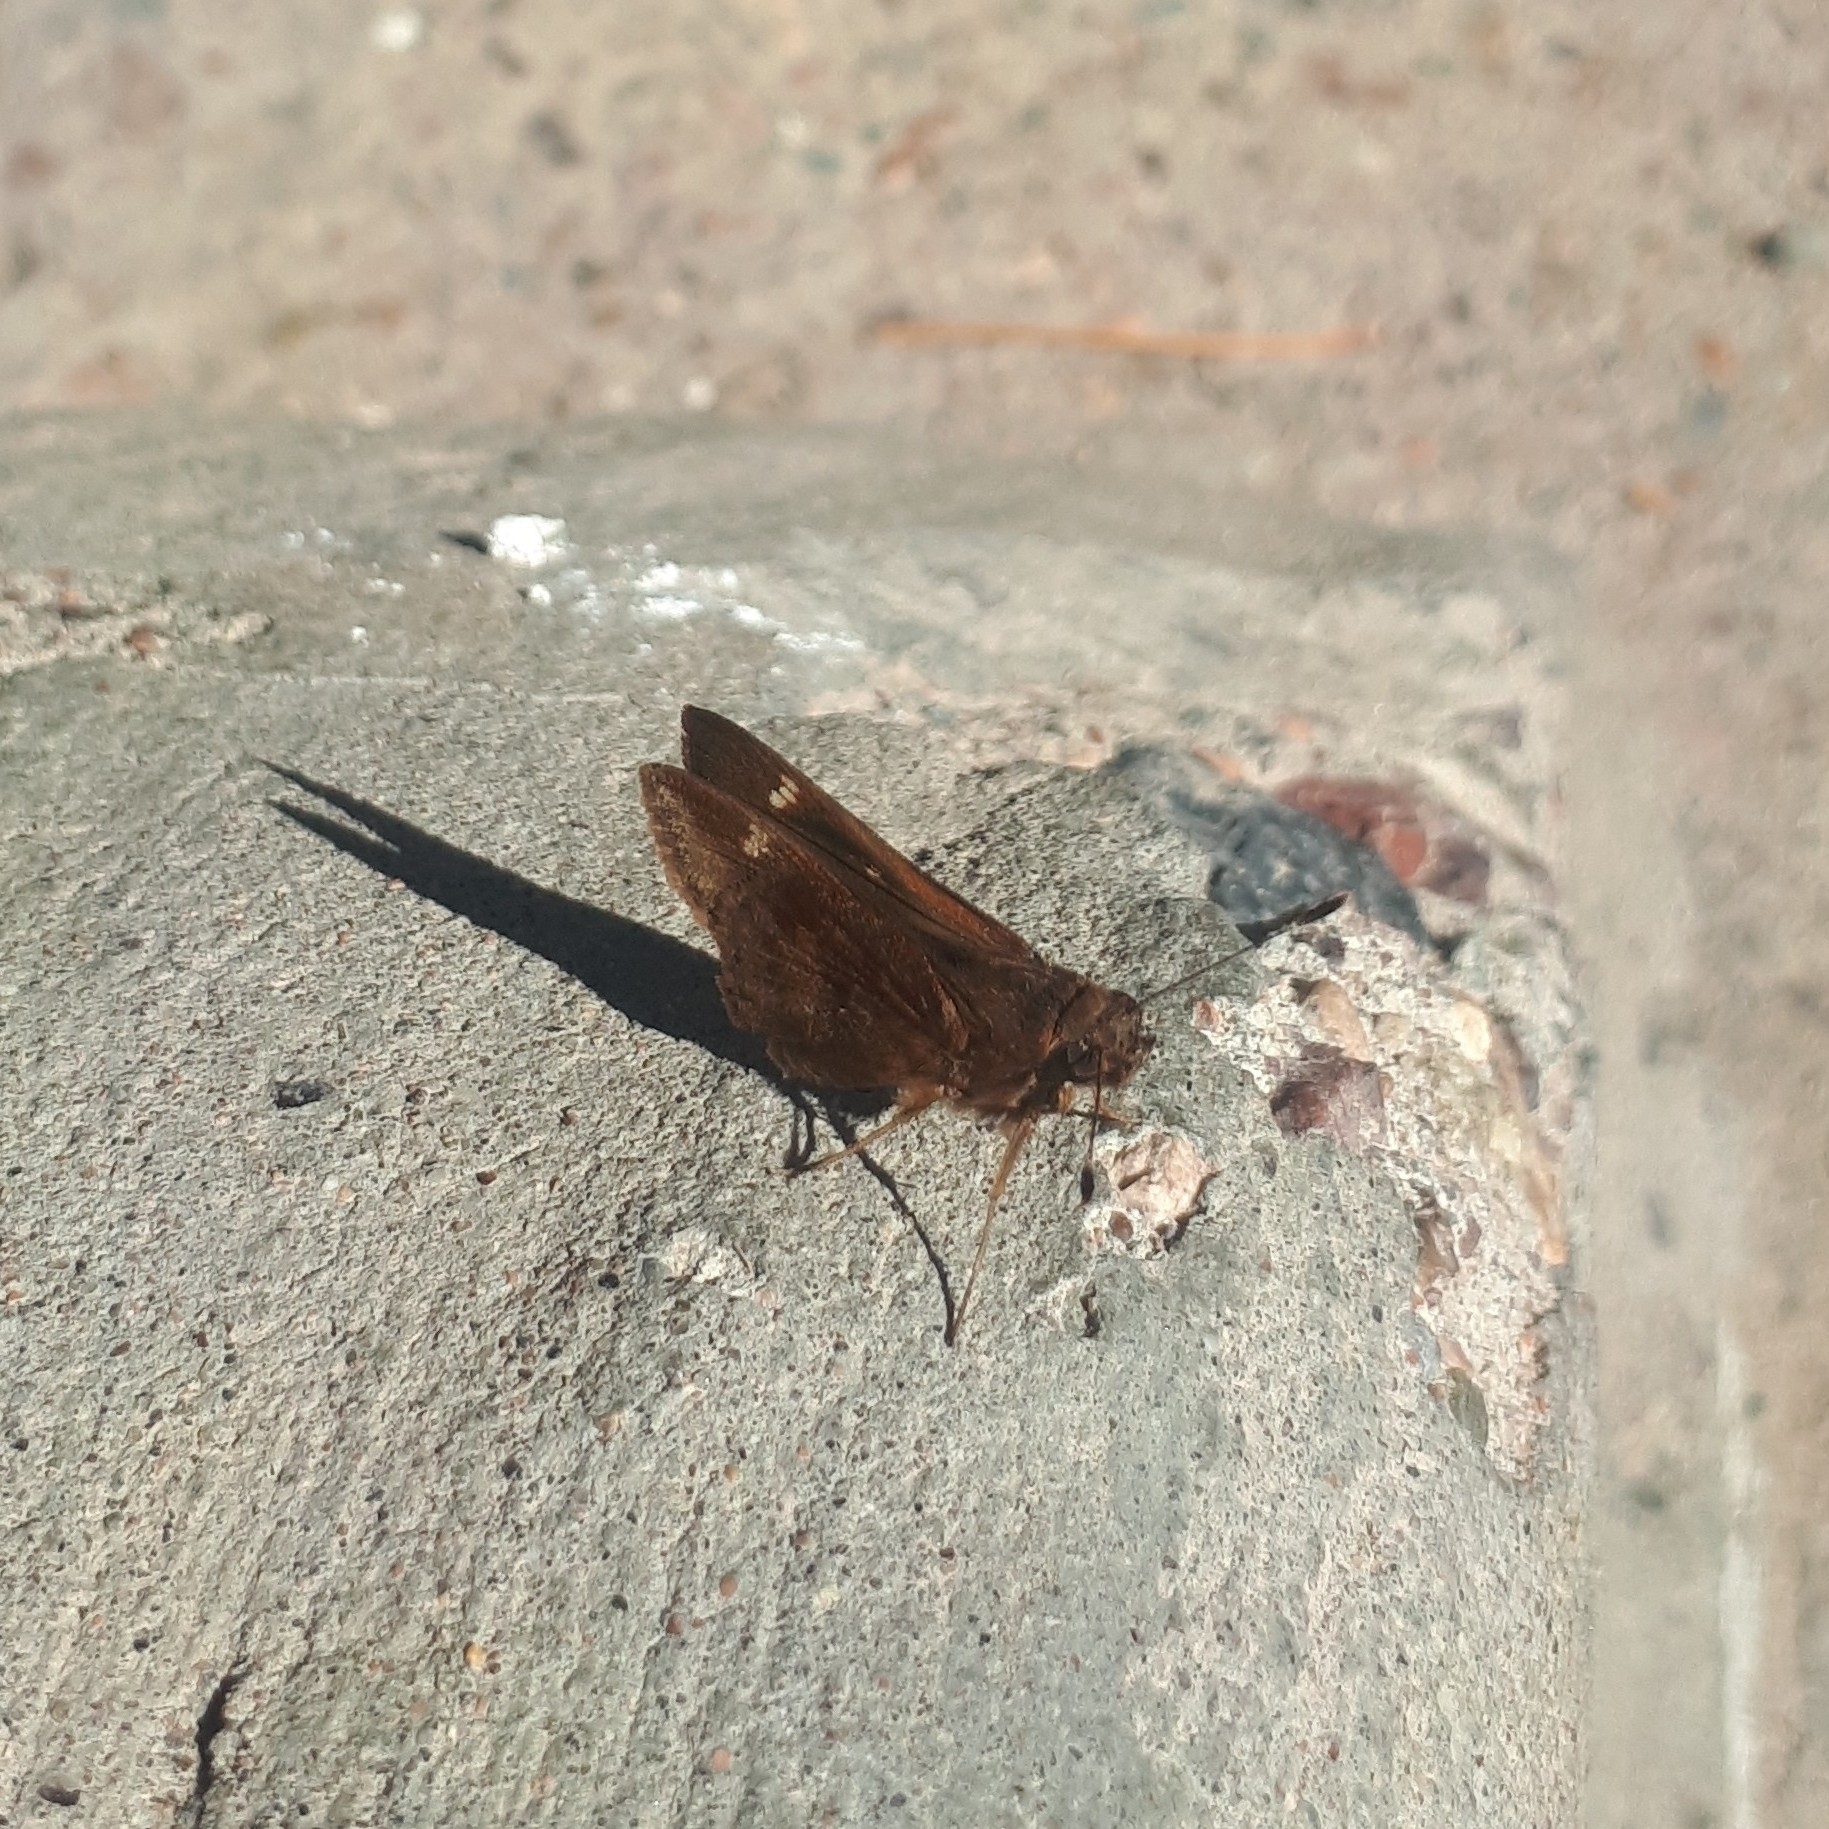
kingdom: Animalia
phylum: Arthropoda
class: Insecta
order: Lepidoptera
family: Hesperiidae
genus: Quinta
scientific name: Quinta cannae
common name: Canna skipper
